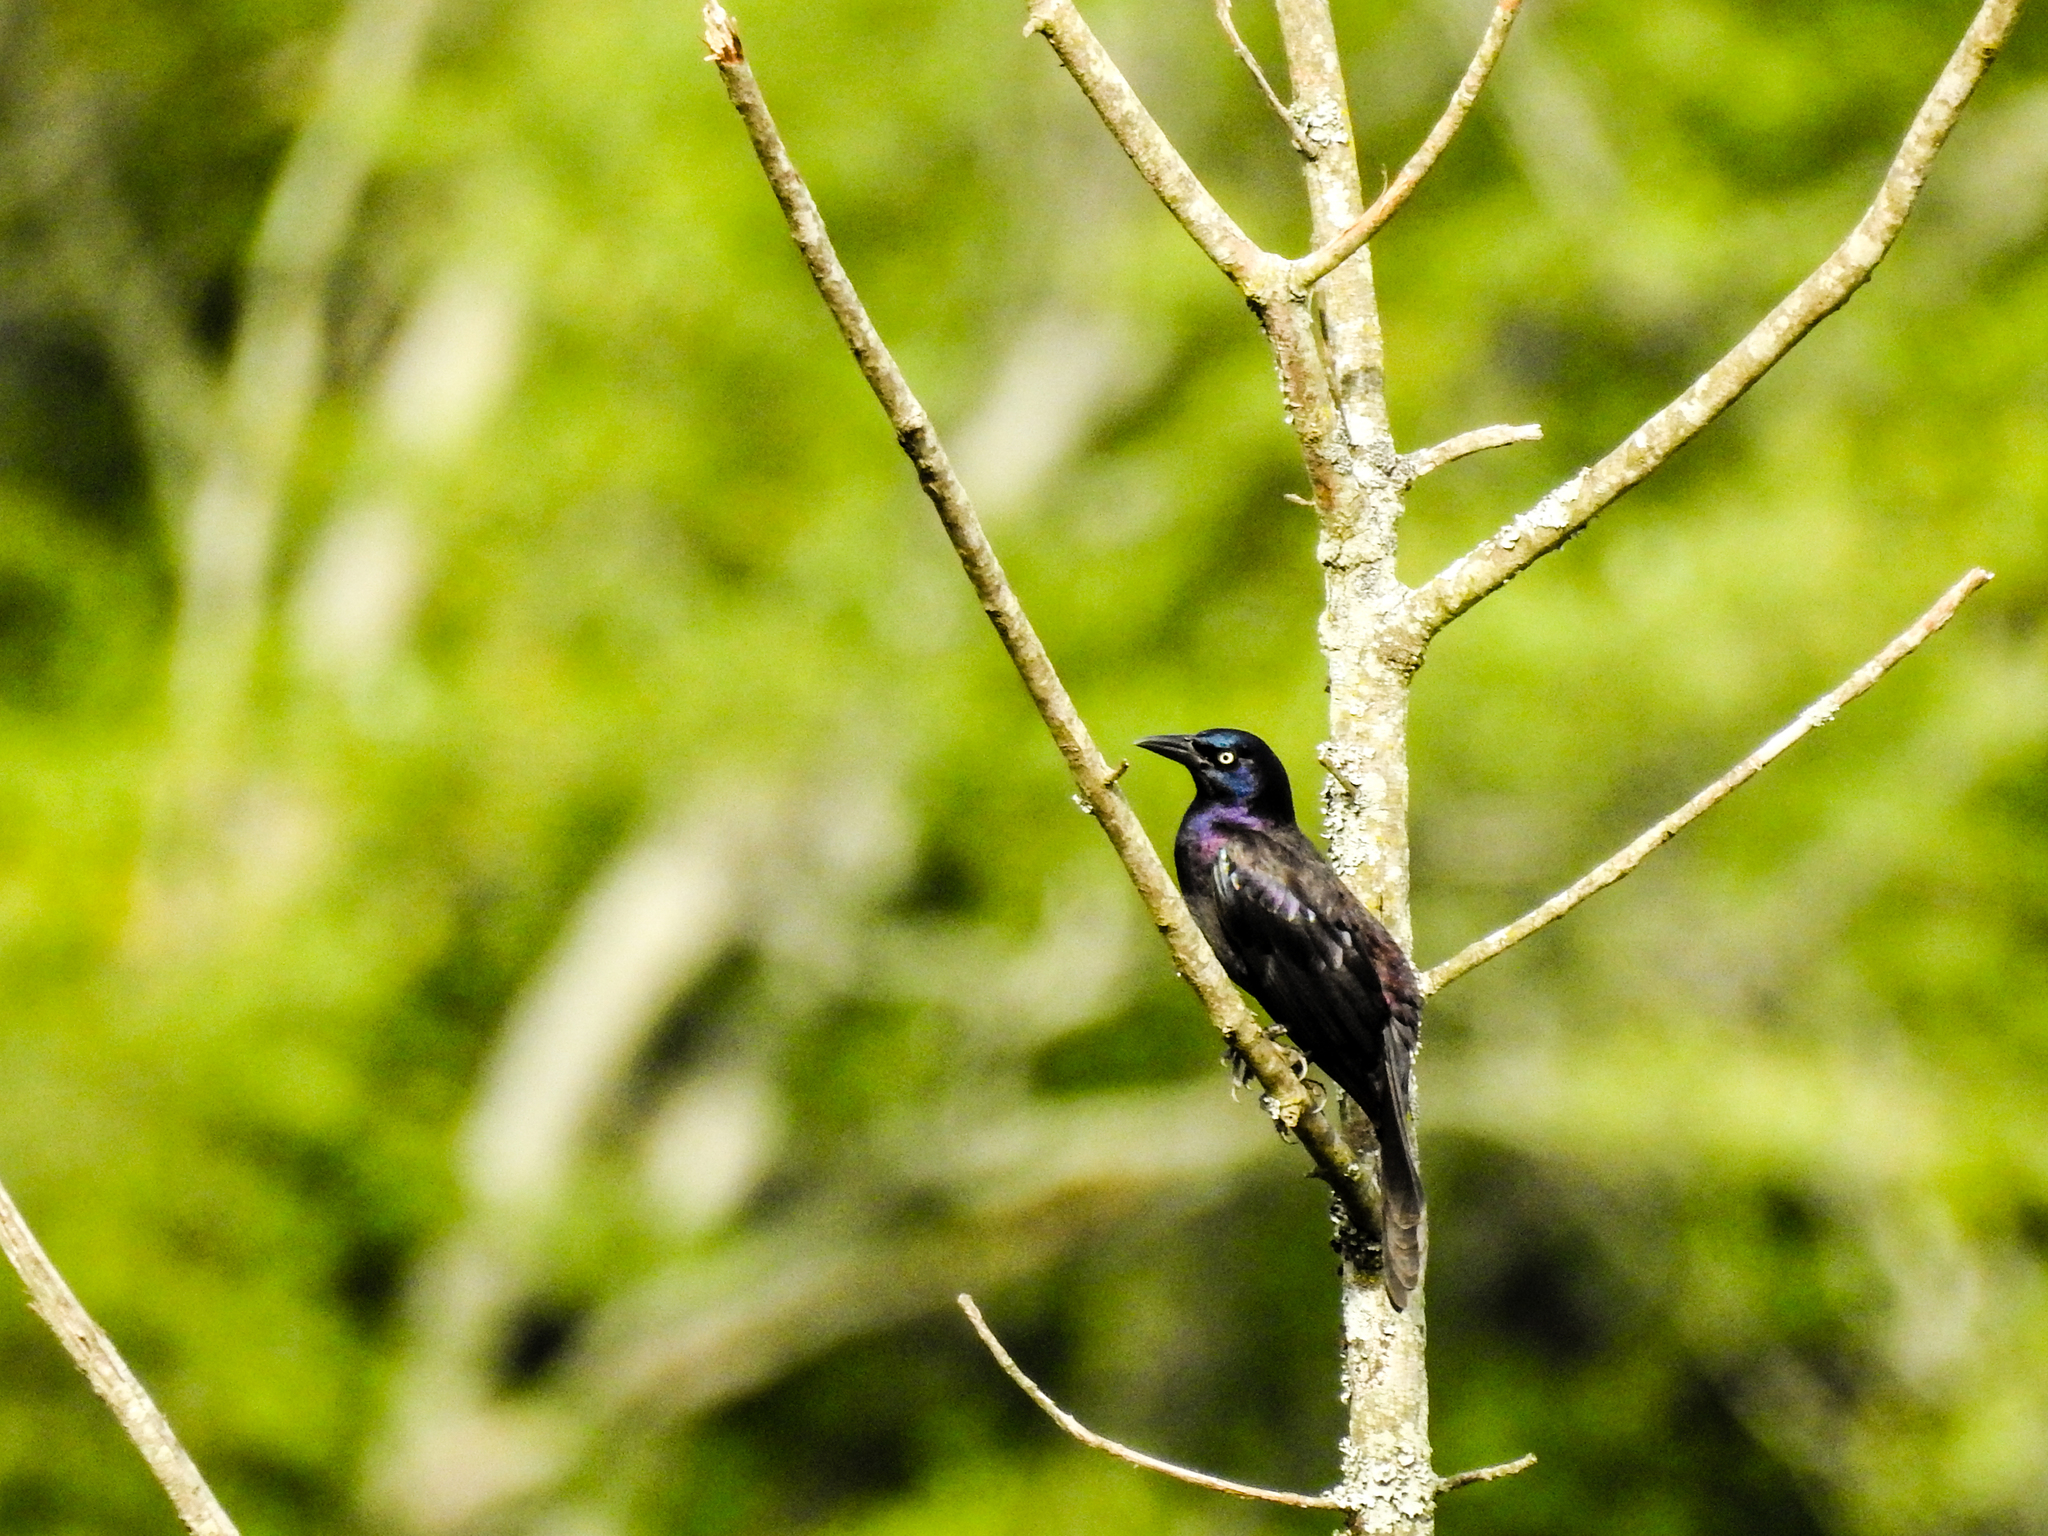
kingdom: Animalia
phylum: Chordata
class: Aves
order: Passeriformes
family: Icteridae
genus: Quiscalus
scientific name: Quiscalus quiscula
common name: Common grackle
